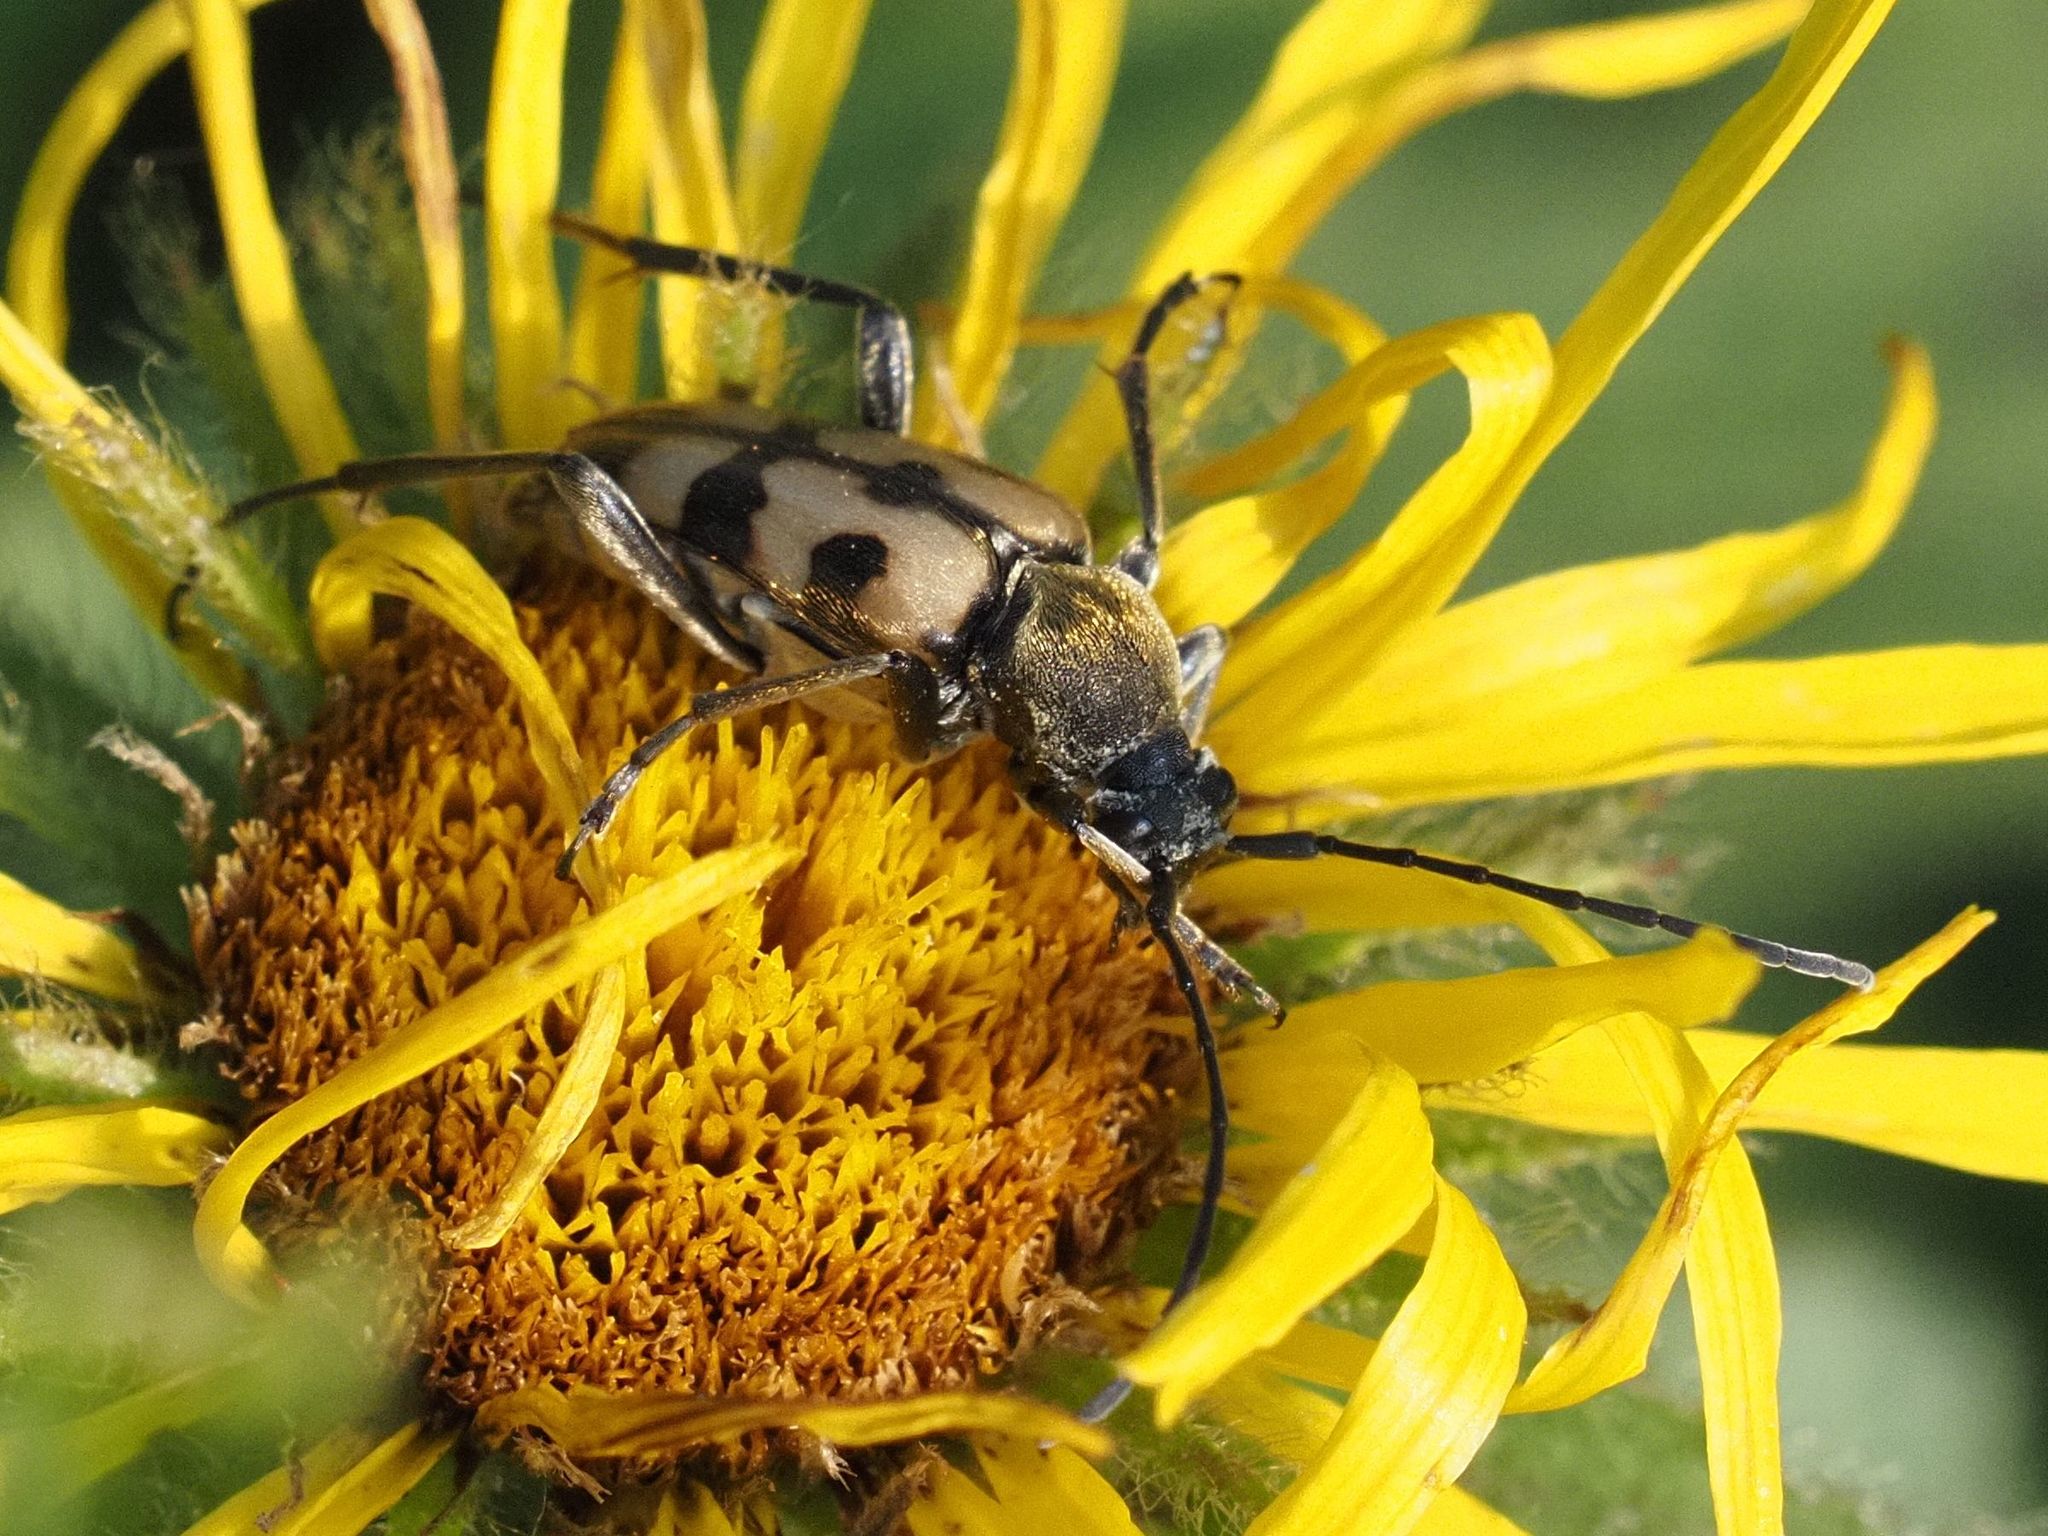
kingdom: Animalia
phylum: Arthropoda
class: Insecta
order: Coleoptera
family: Cerambycidae
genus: Pachytodes
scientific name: Pachytodes
